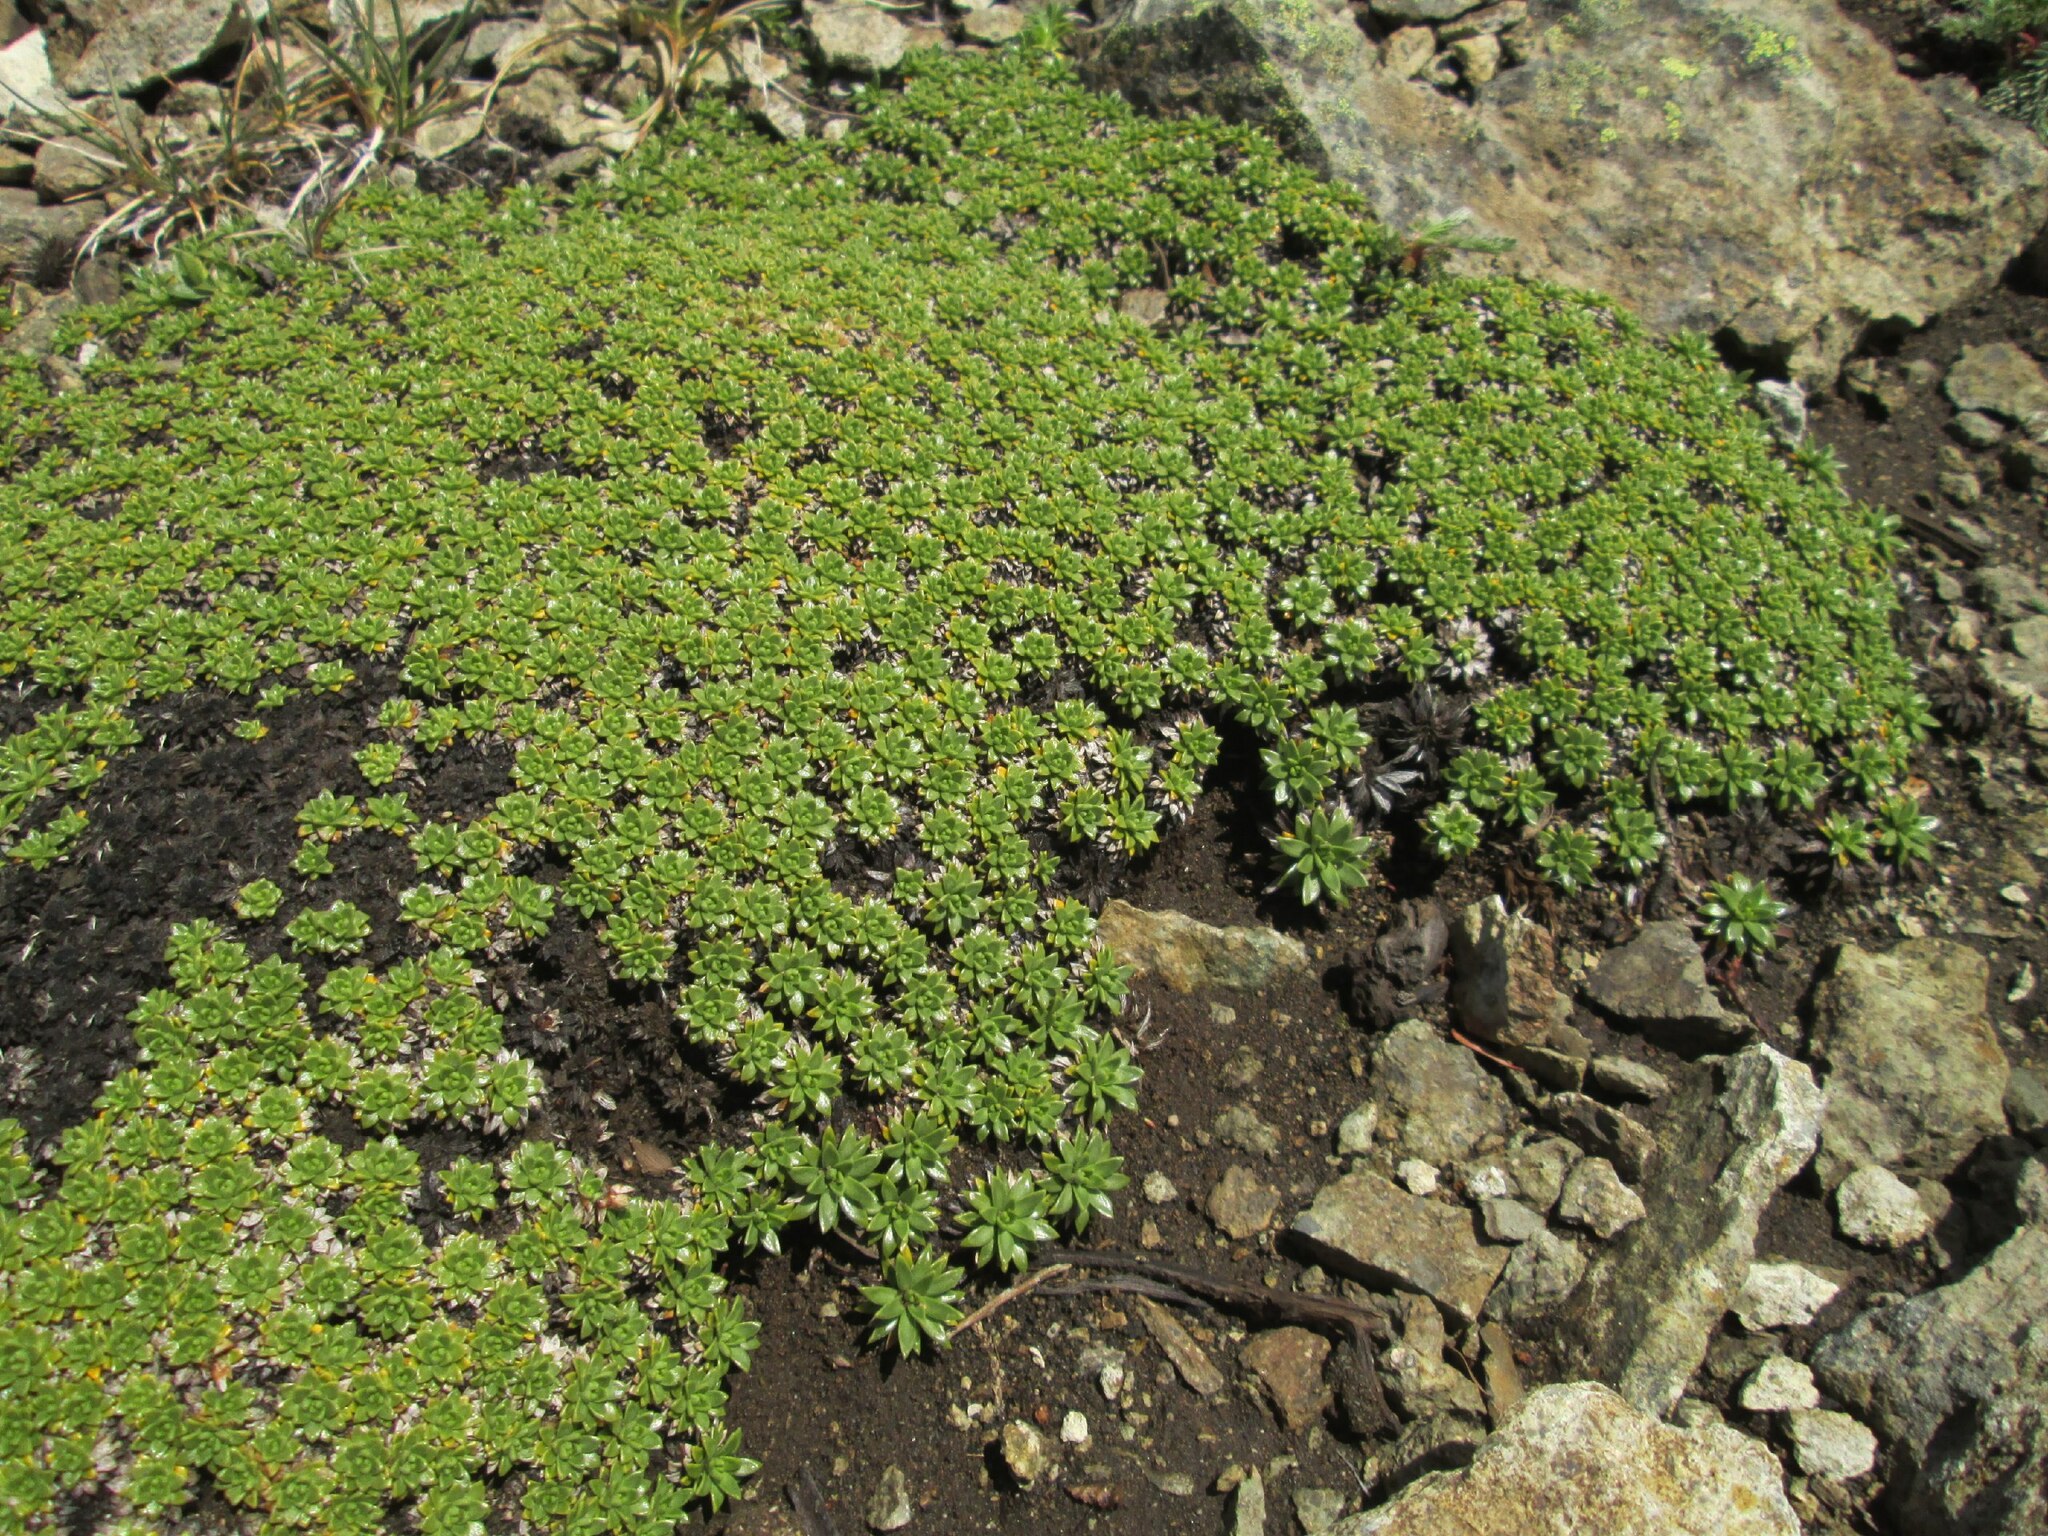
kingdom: Plantae
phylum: Tracheophyta
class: Magnoliopsida
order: Apiales
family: Apiaceae
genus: Azorella
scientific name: Azorella monantha
